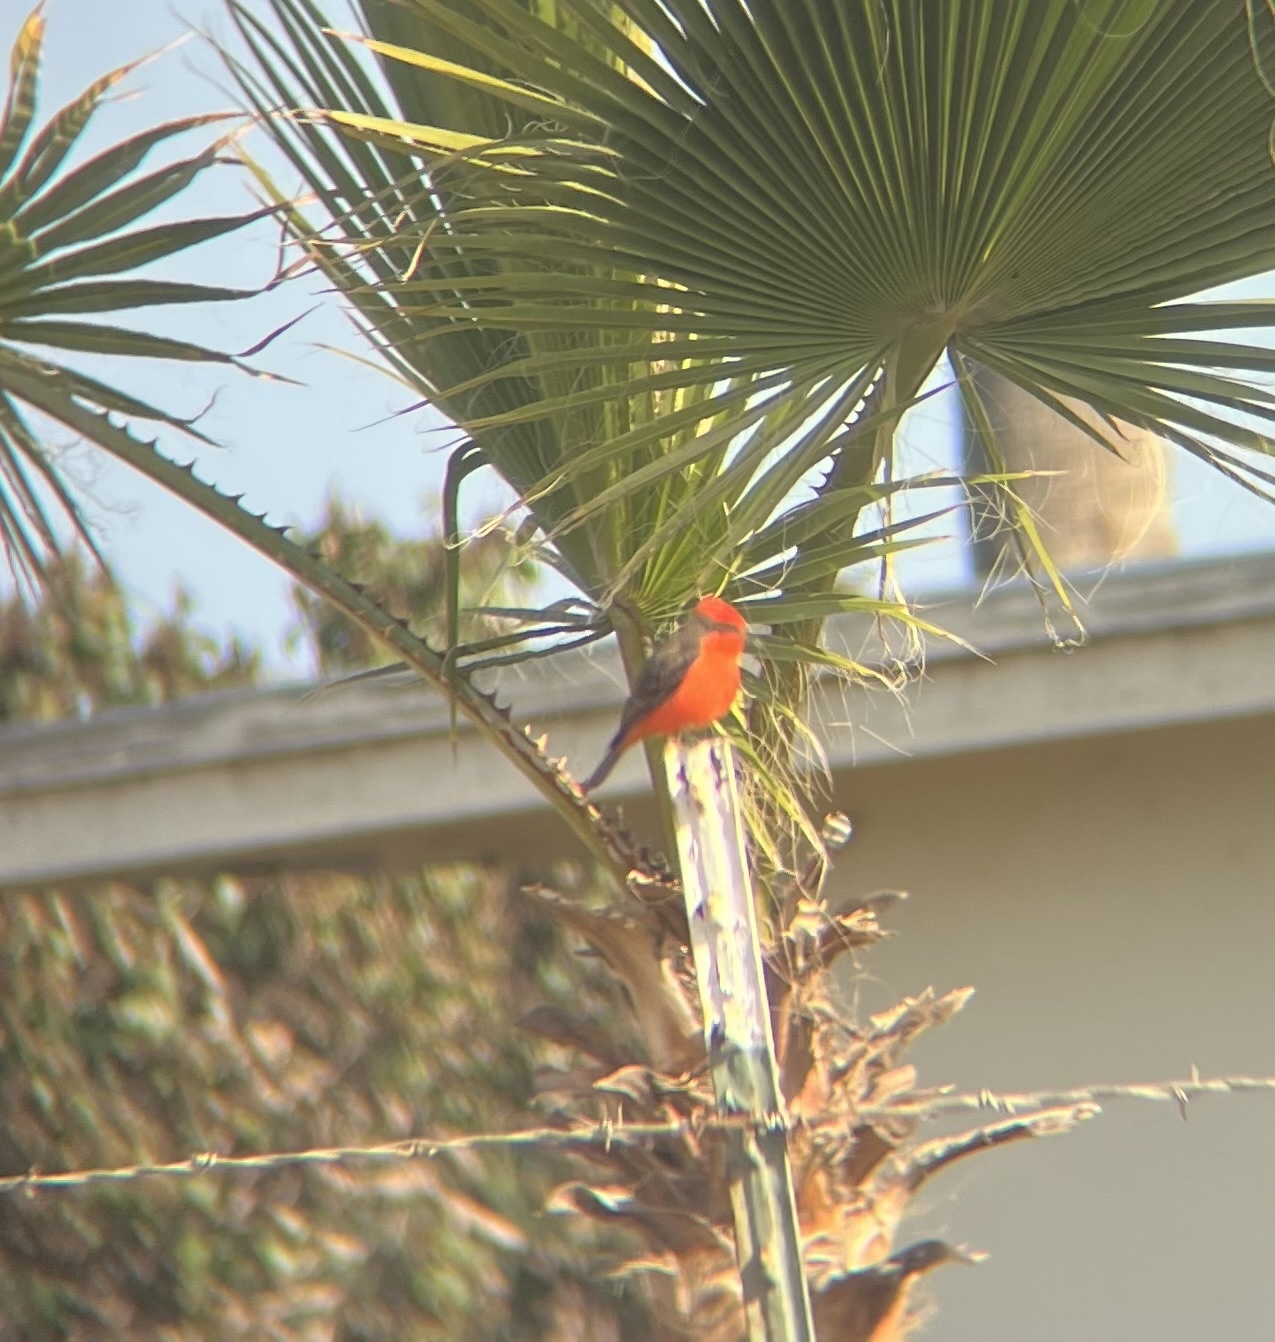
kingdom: Animalia
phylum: Chordata
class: Aves
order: Passeriformes
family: Tyrannidae
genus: Pyrocephalus
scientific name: Pyrocephalus rubinus
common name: Vermilion flycatcher
